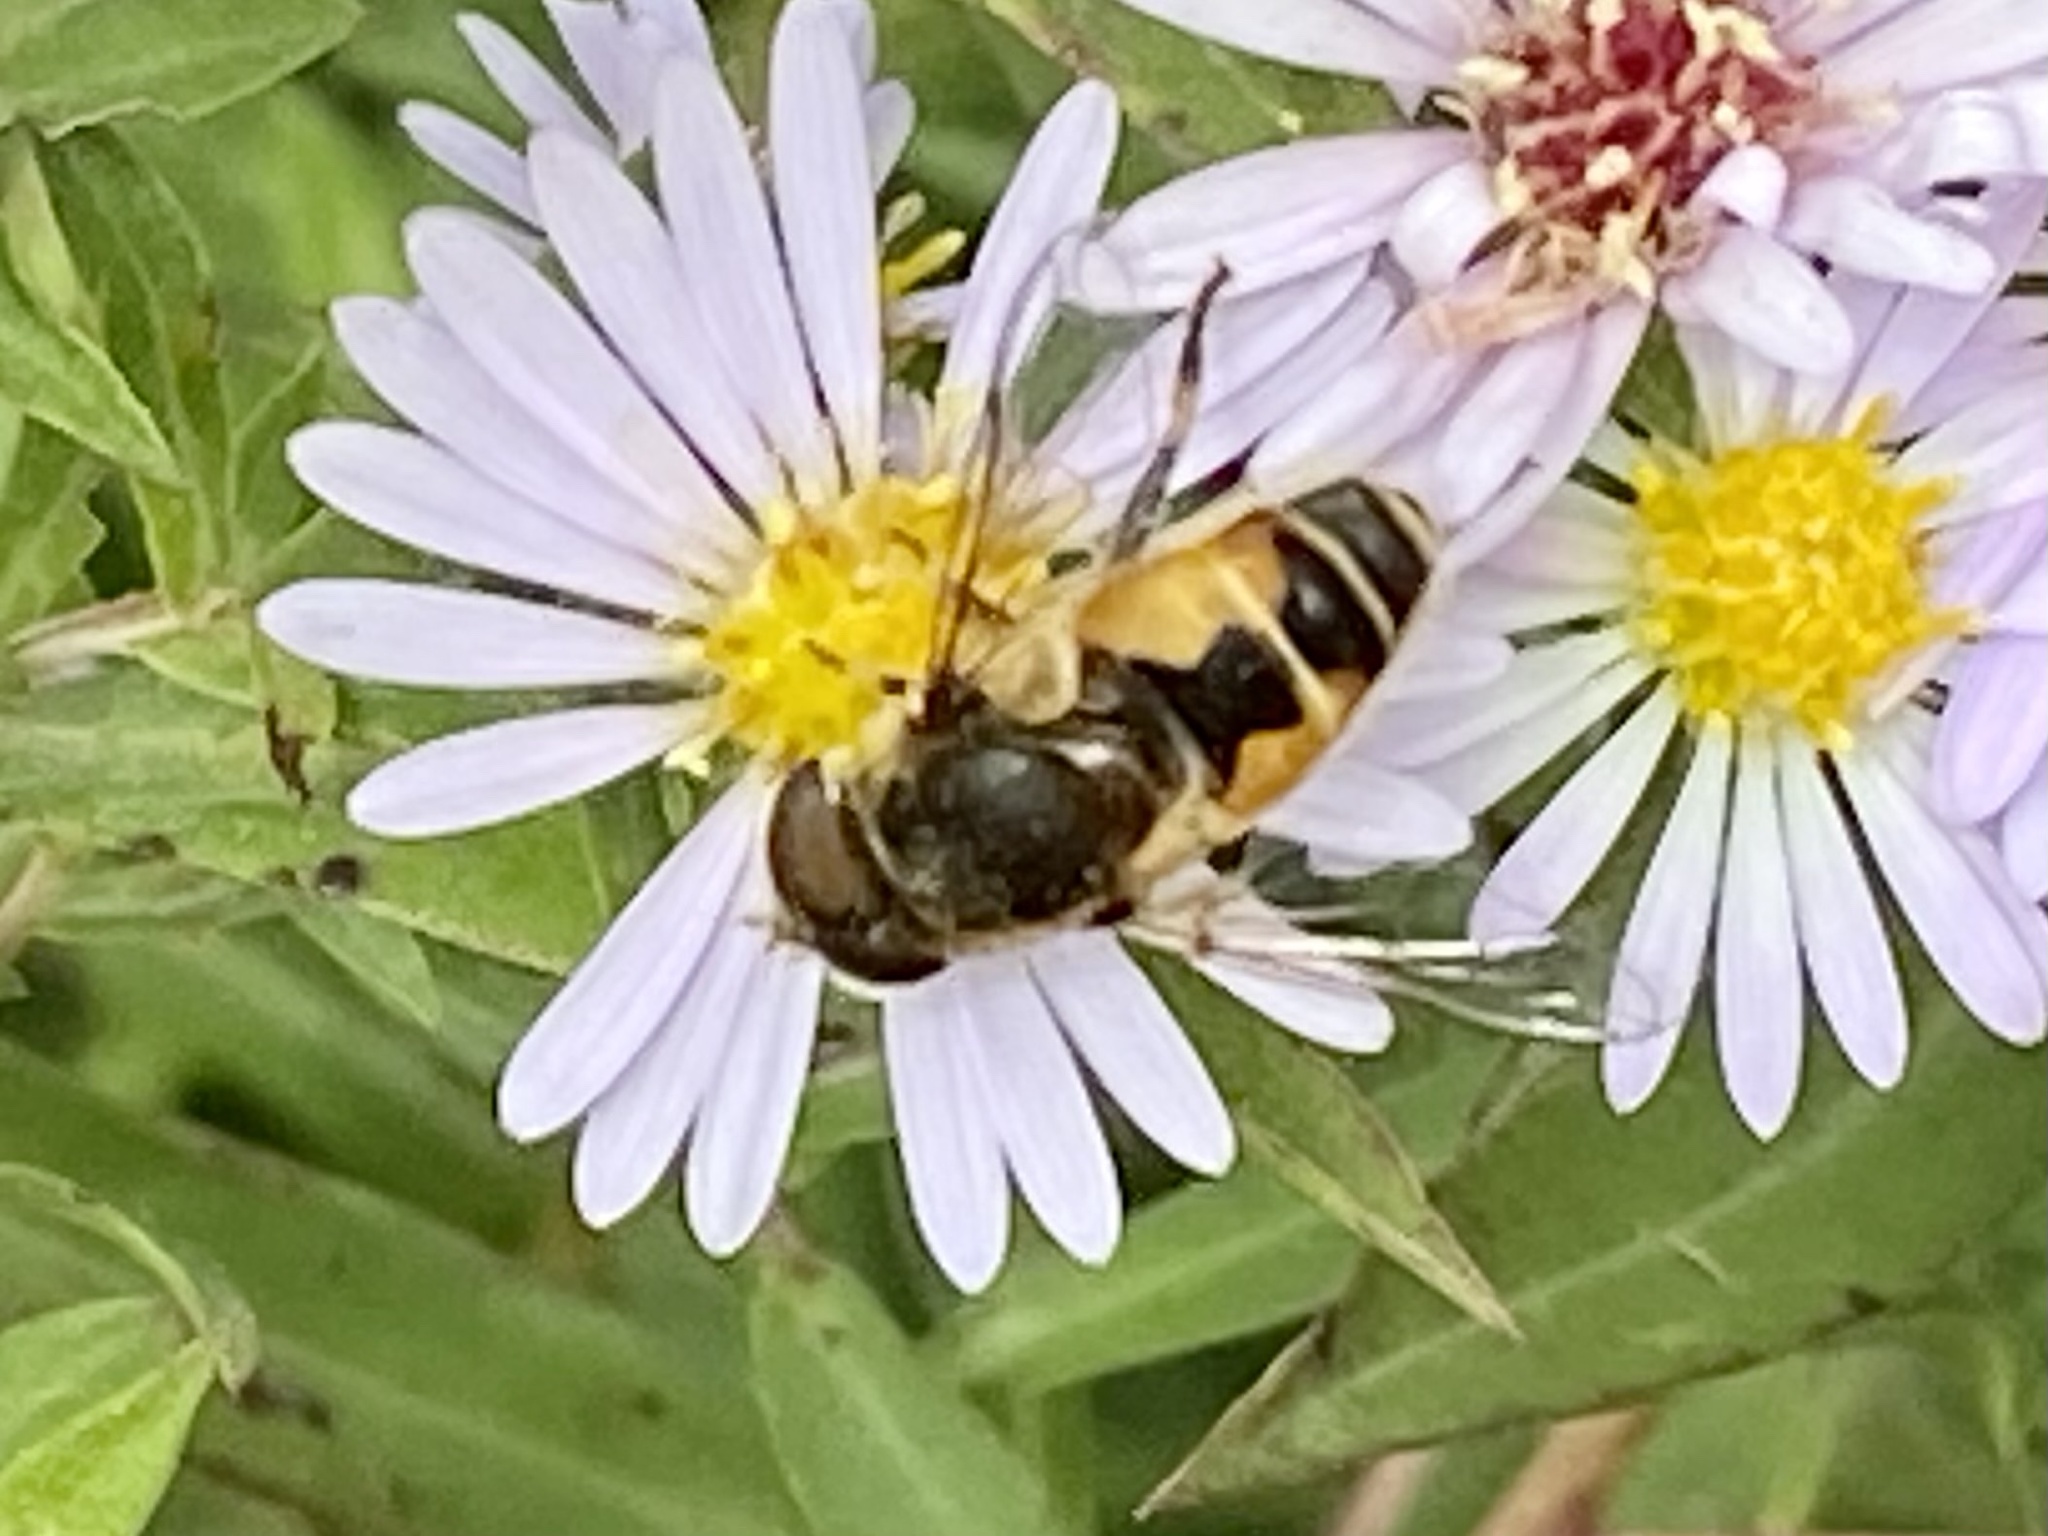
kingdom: Animalia
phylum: Arthropoda
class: Insecta
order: Diptera
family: Syrphidae
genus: Eristalis
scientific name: Eristalis arbustorum
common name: Hover fly
